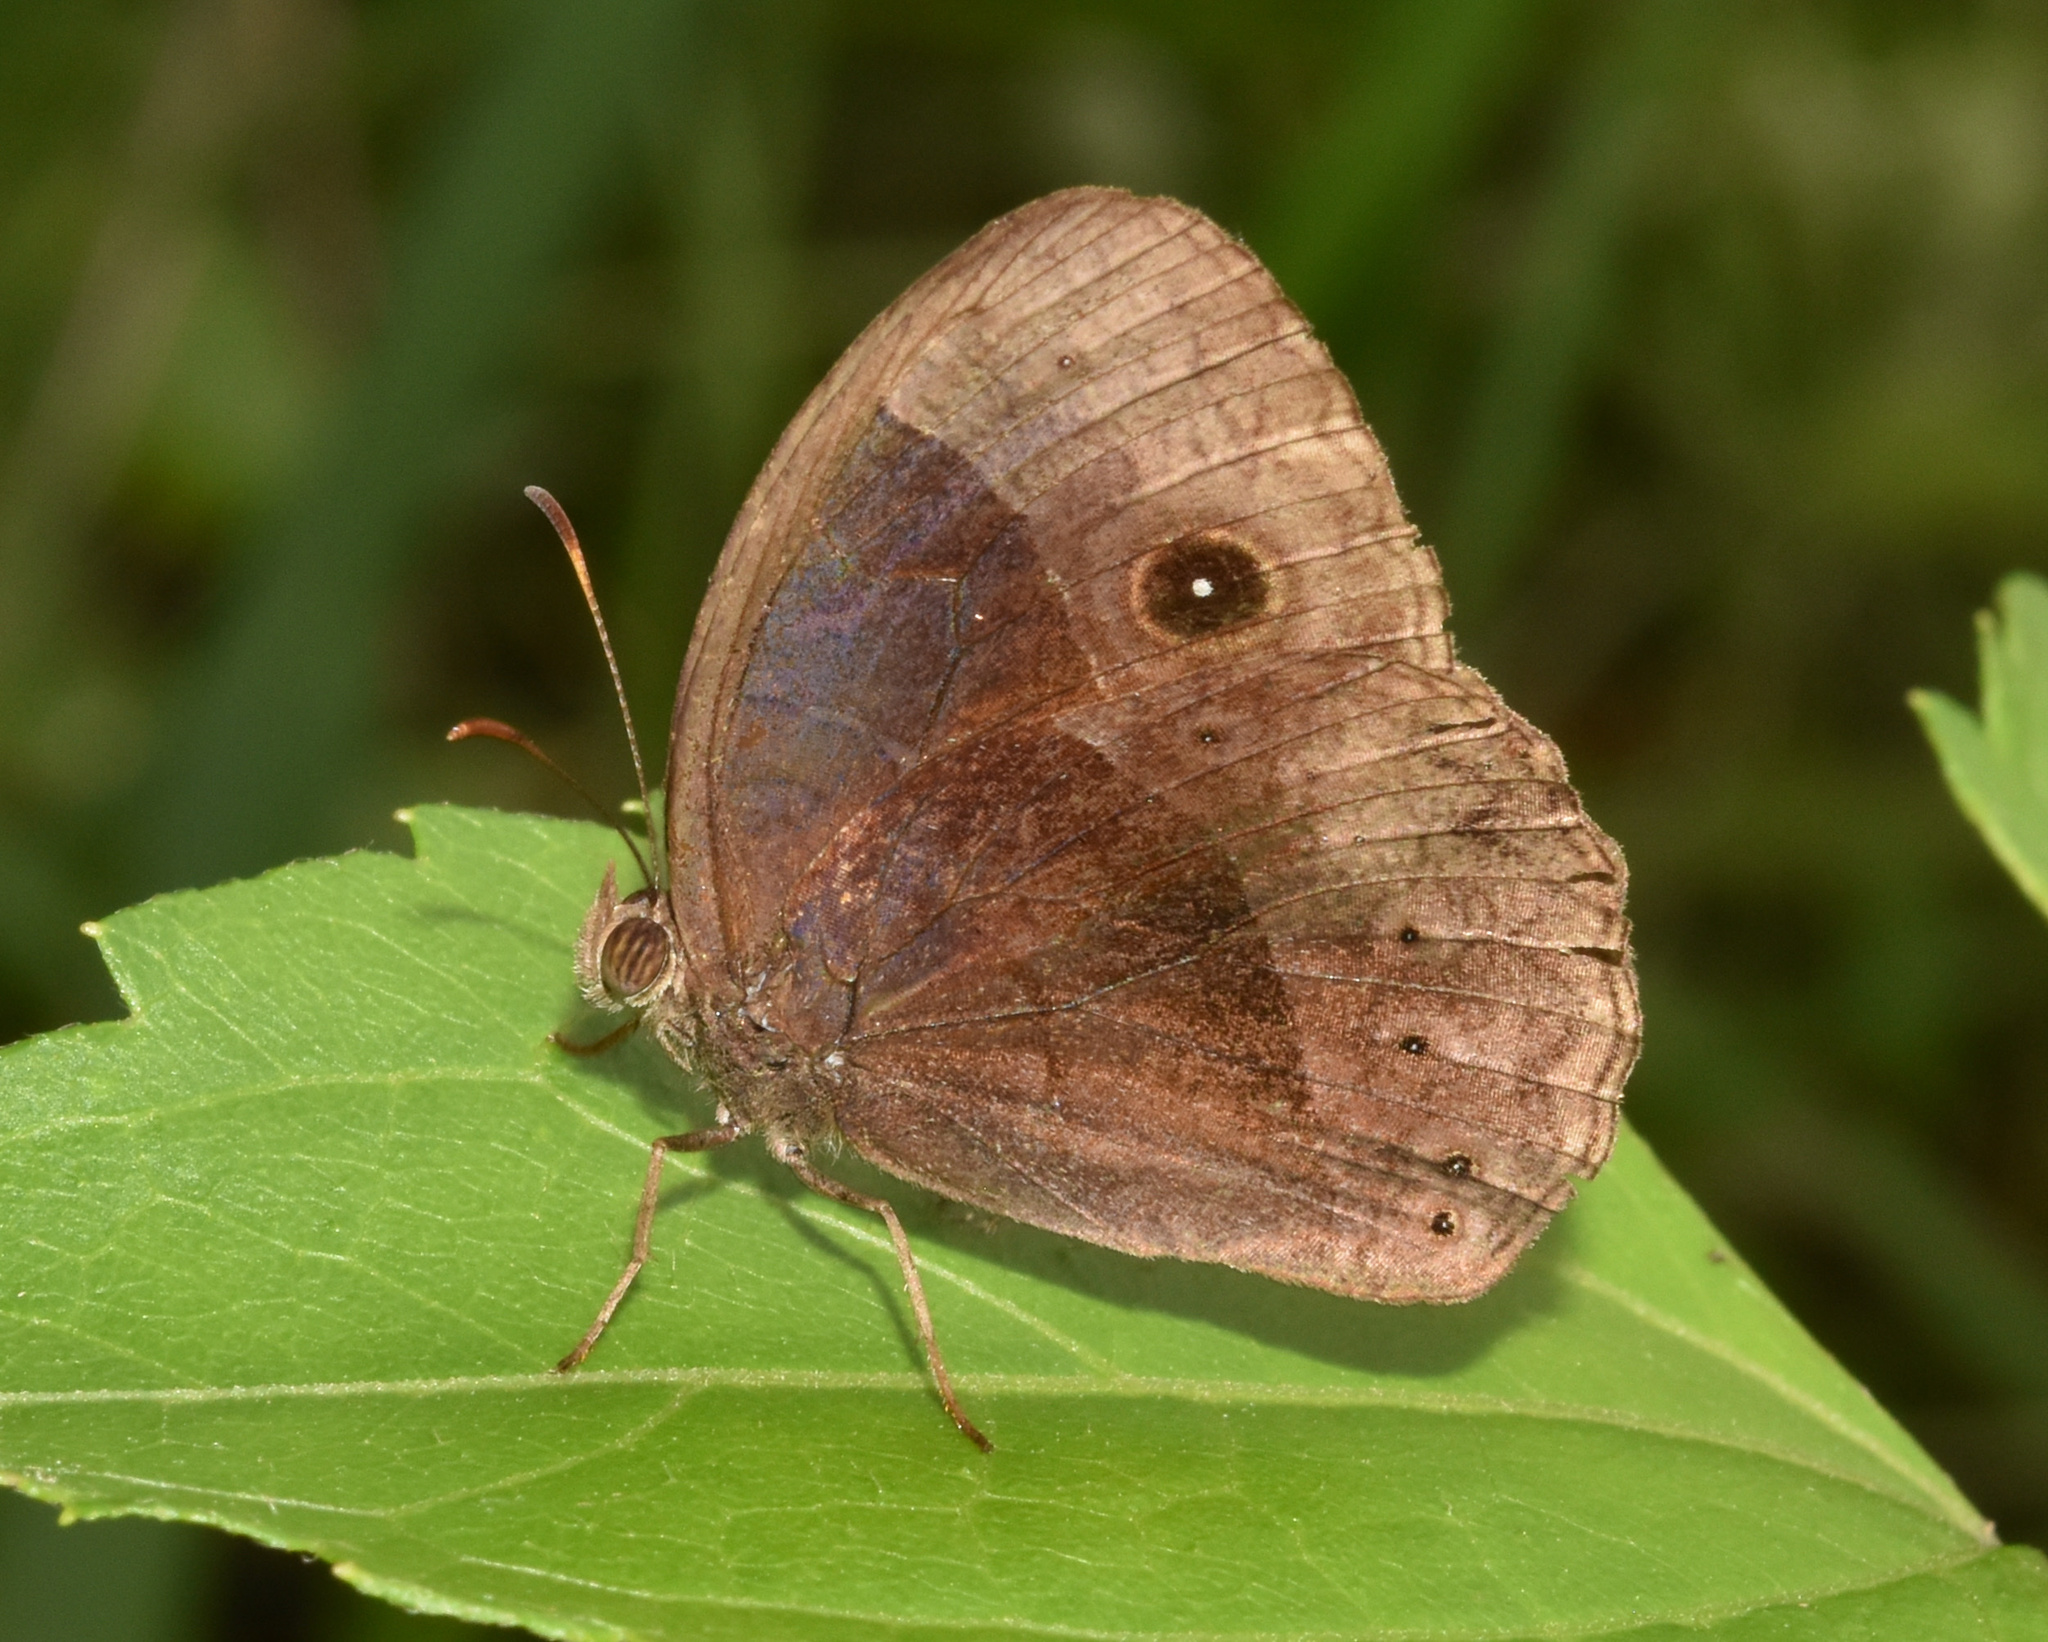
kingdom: Animalia
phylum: Arthropoda
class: Insecta
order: Lepidoptera
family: Nymphalidae
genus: Mycalesis
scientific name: Mycalesis rhacotis
